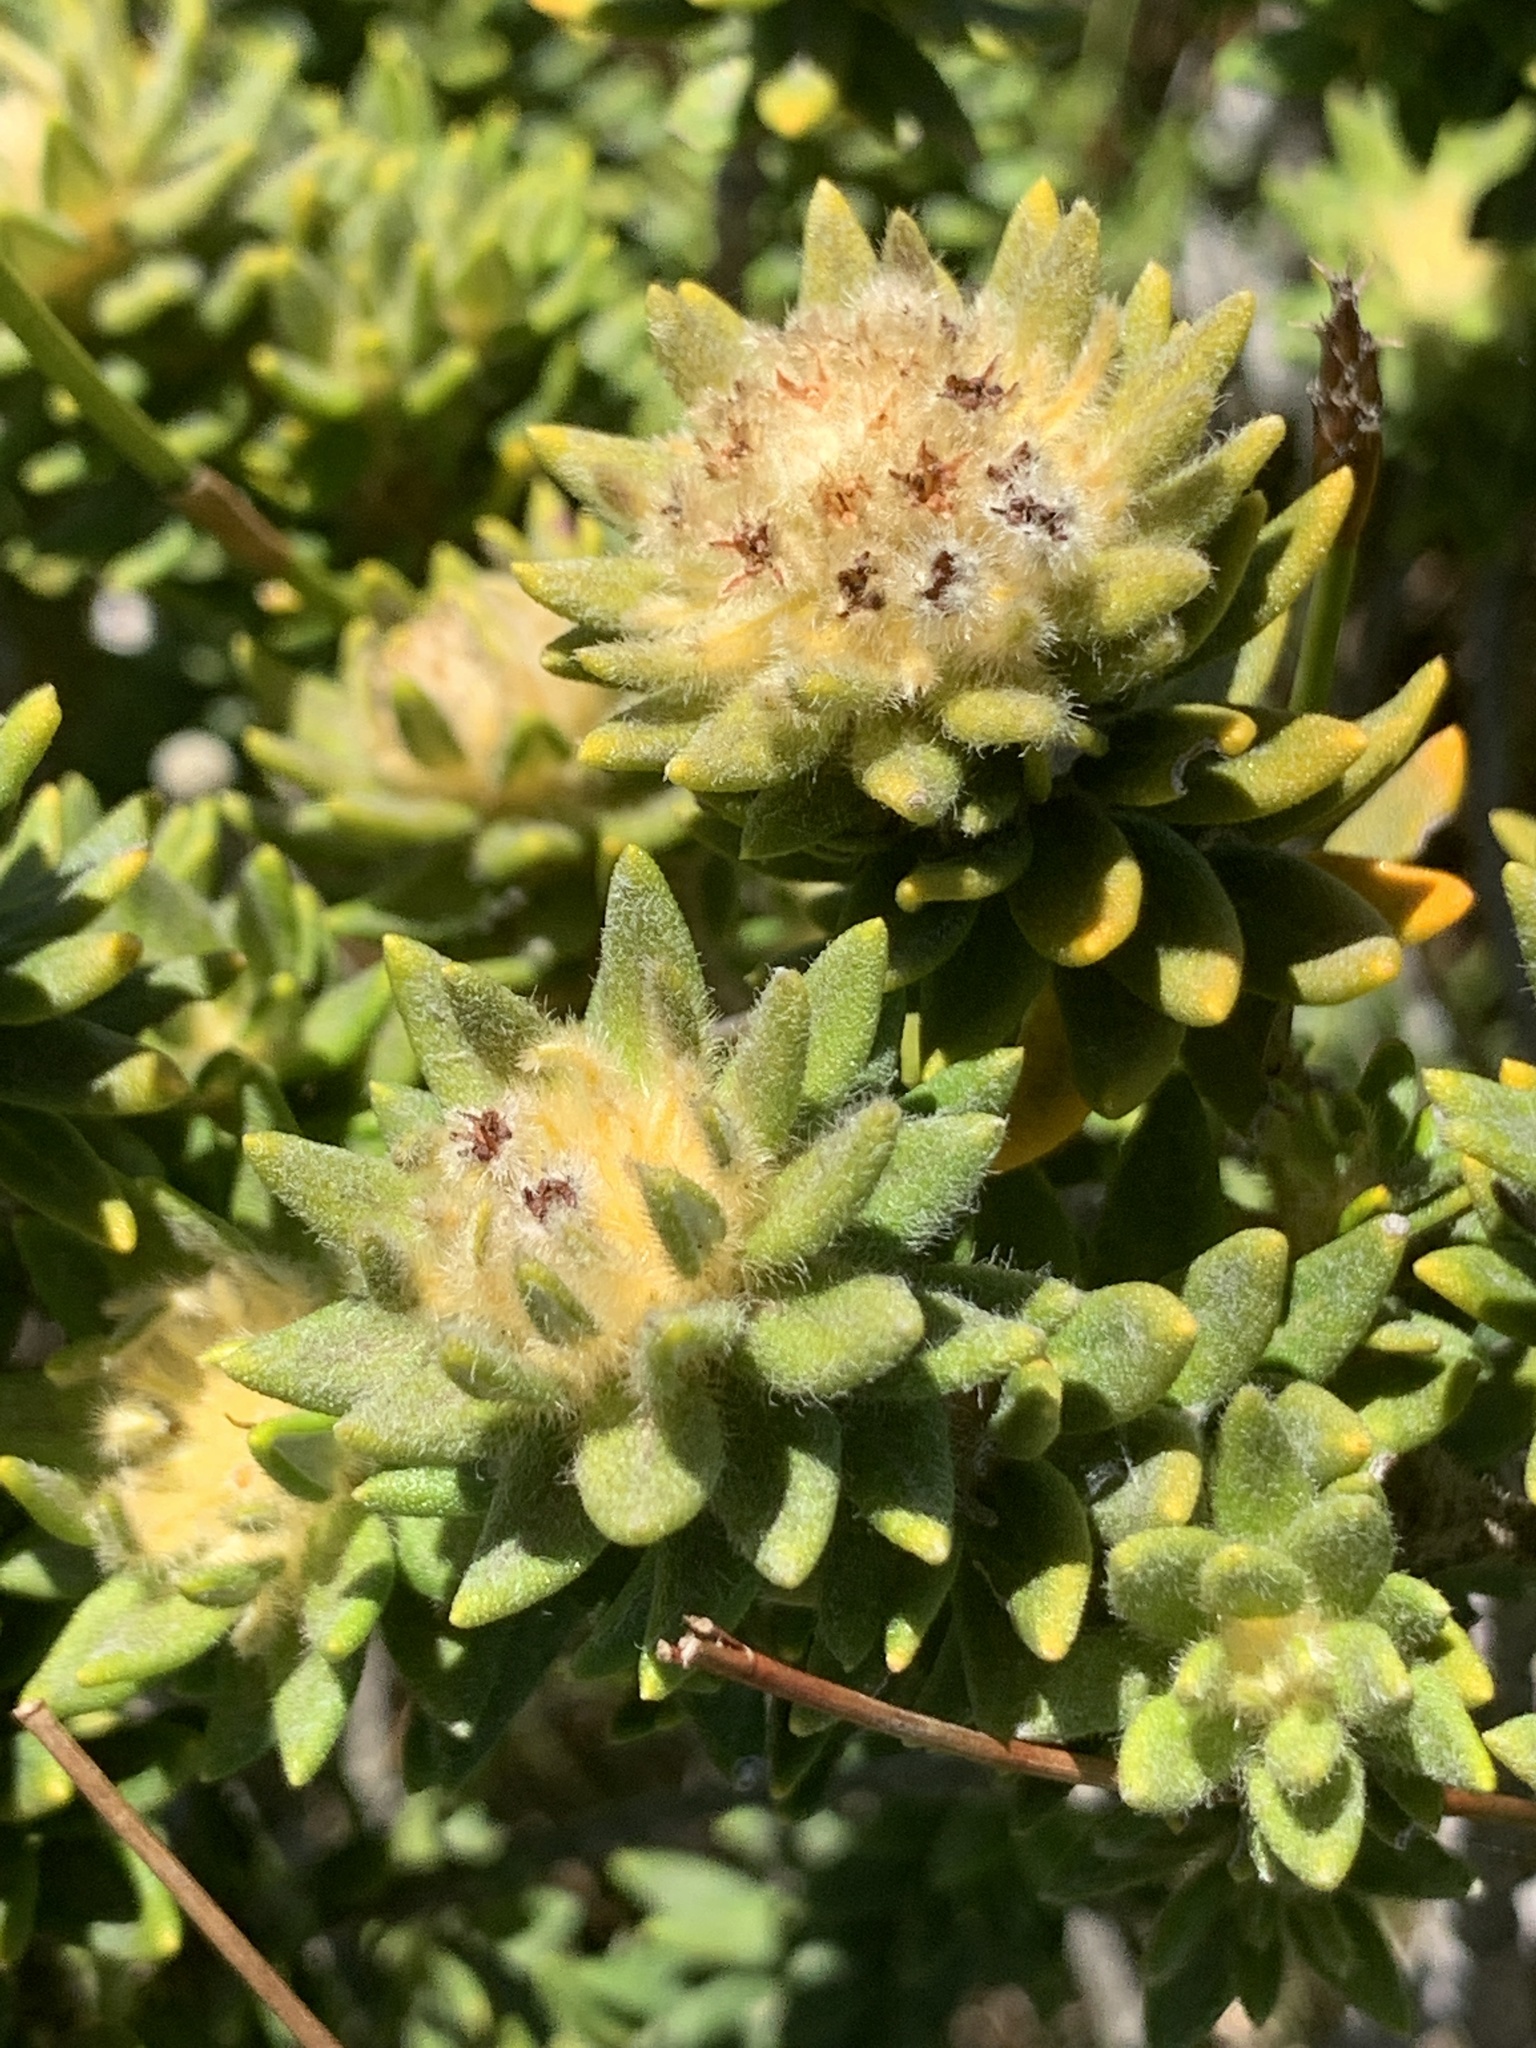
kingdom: Plantae
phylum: Tracheophyta
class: Magnoliopsida
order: Rosales
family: Rhamnaceae
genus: Phylica
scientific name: Phylica dioica
